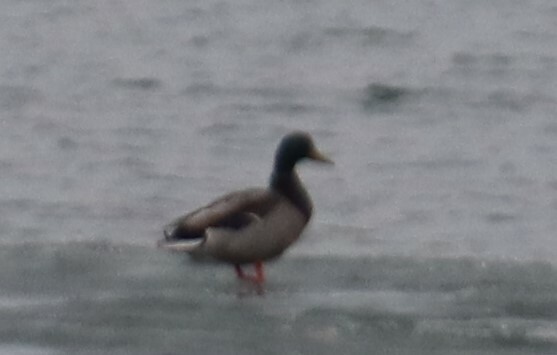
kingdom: Animalia
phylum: Chordata
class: Aves
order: Anseriformes
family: Anatidae
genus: Anas
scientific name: Anas platyrhynchos
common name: Mallard
